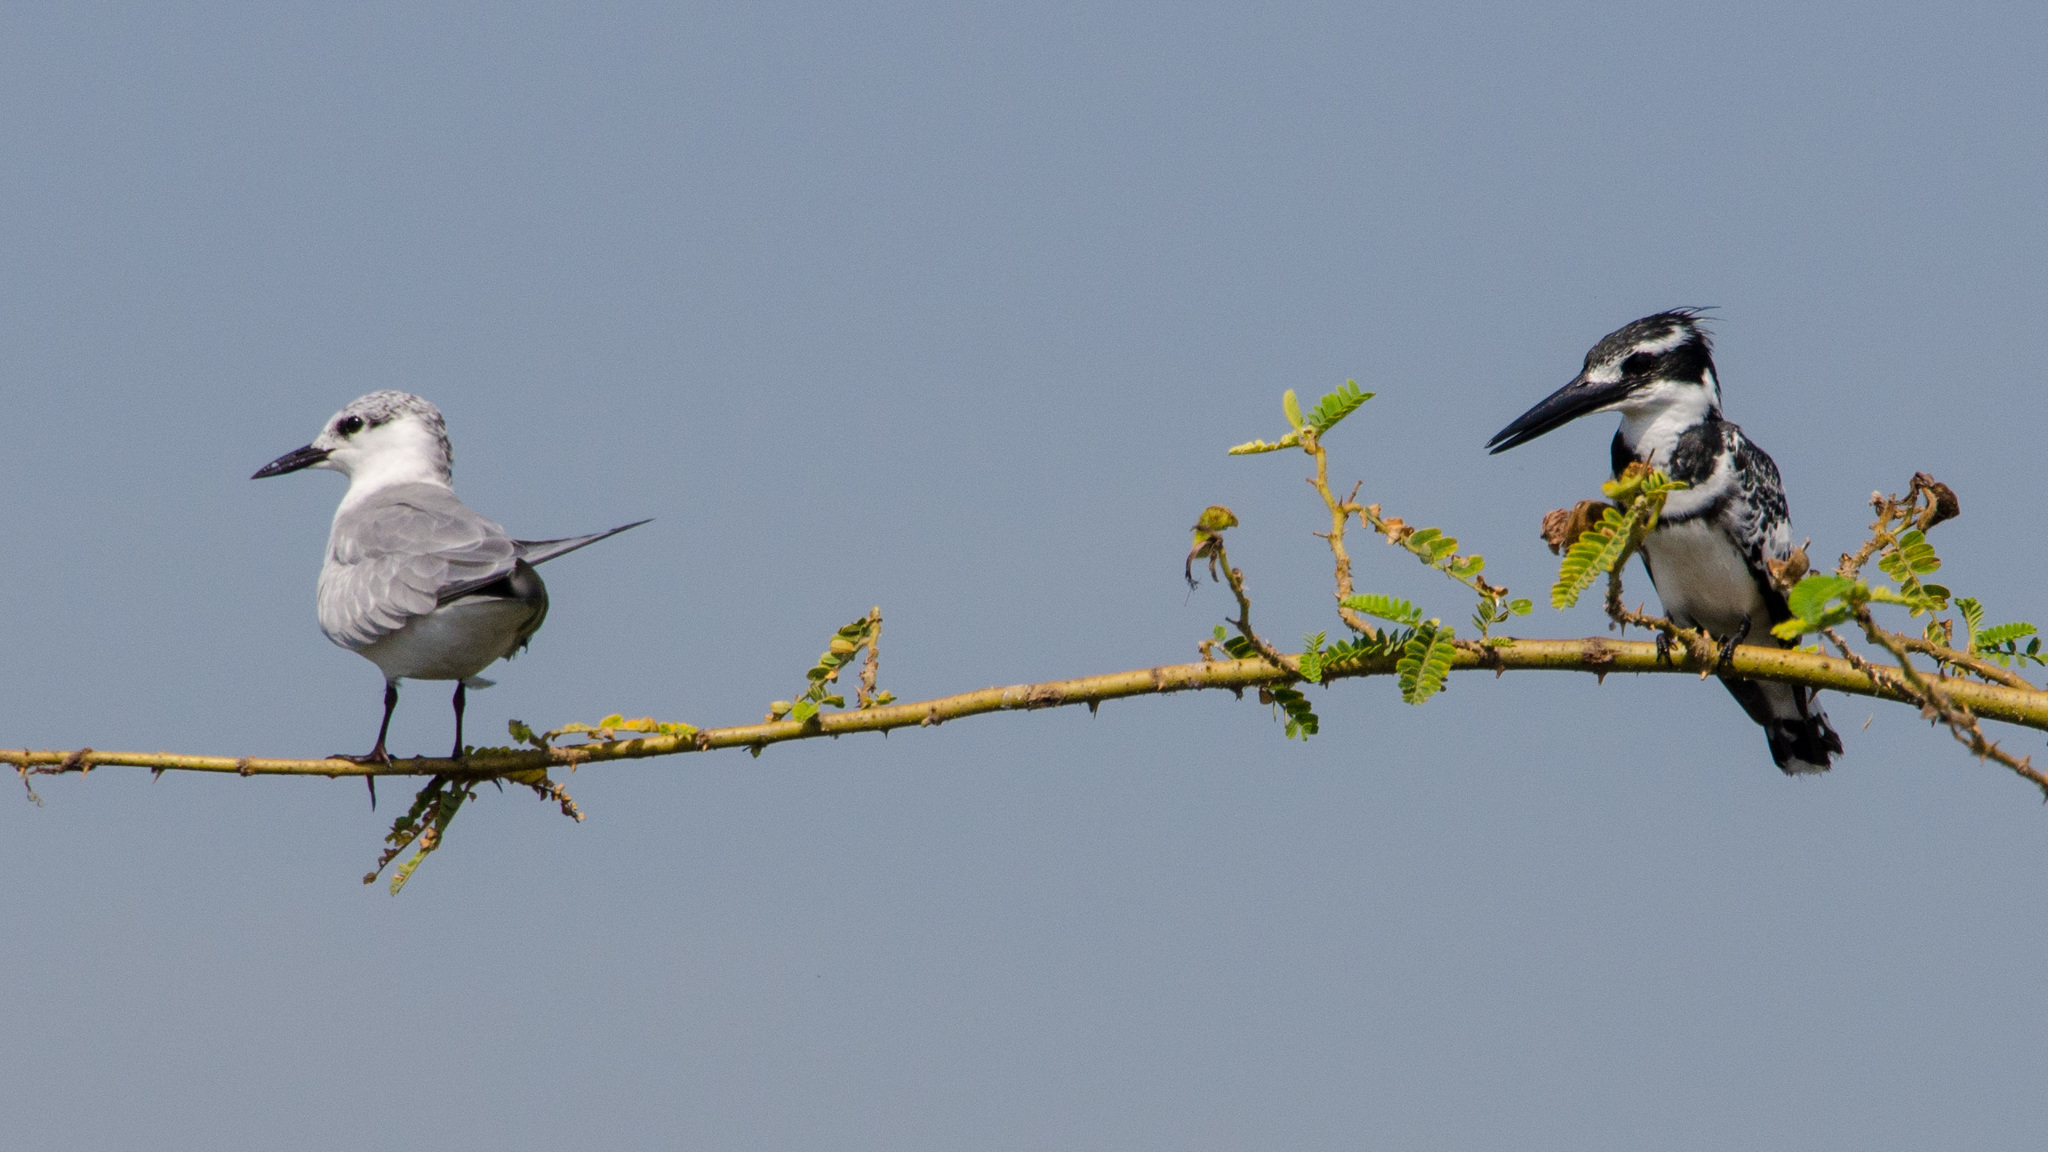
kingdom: Animalia
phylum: Chordata
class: Aves
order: Coraciiformes
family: Alcedinidae
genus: Ceryle
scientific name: Ceryle rudis
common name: Pied kingfisher
